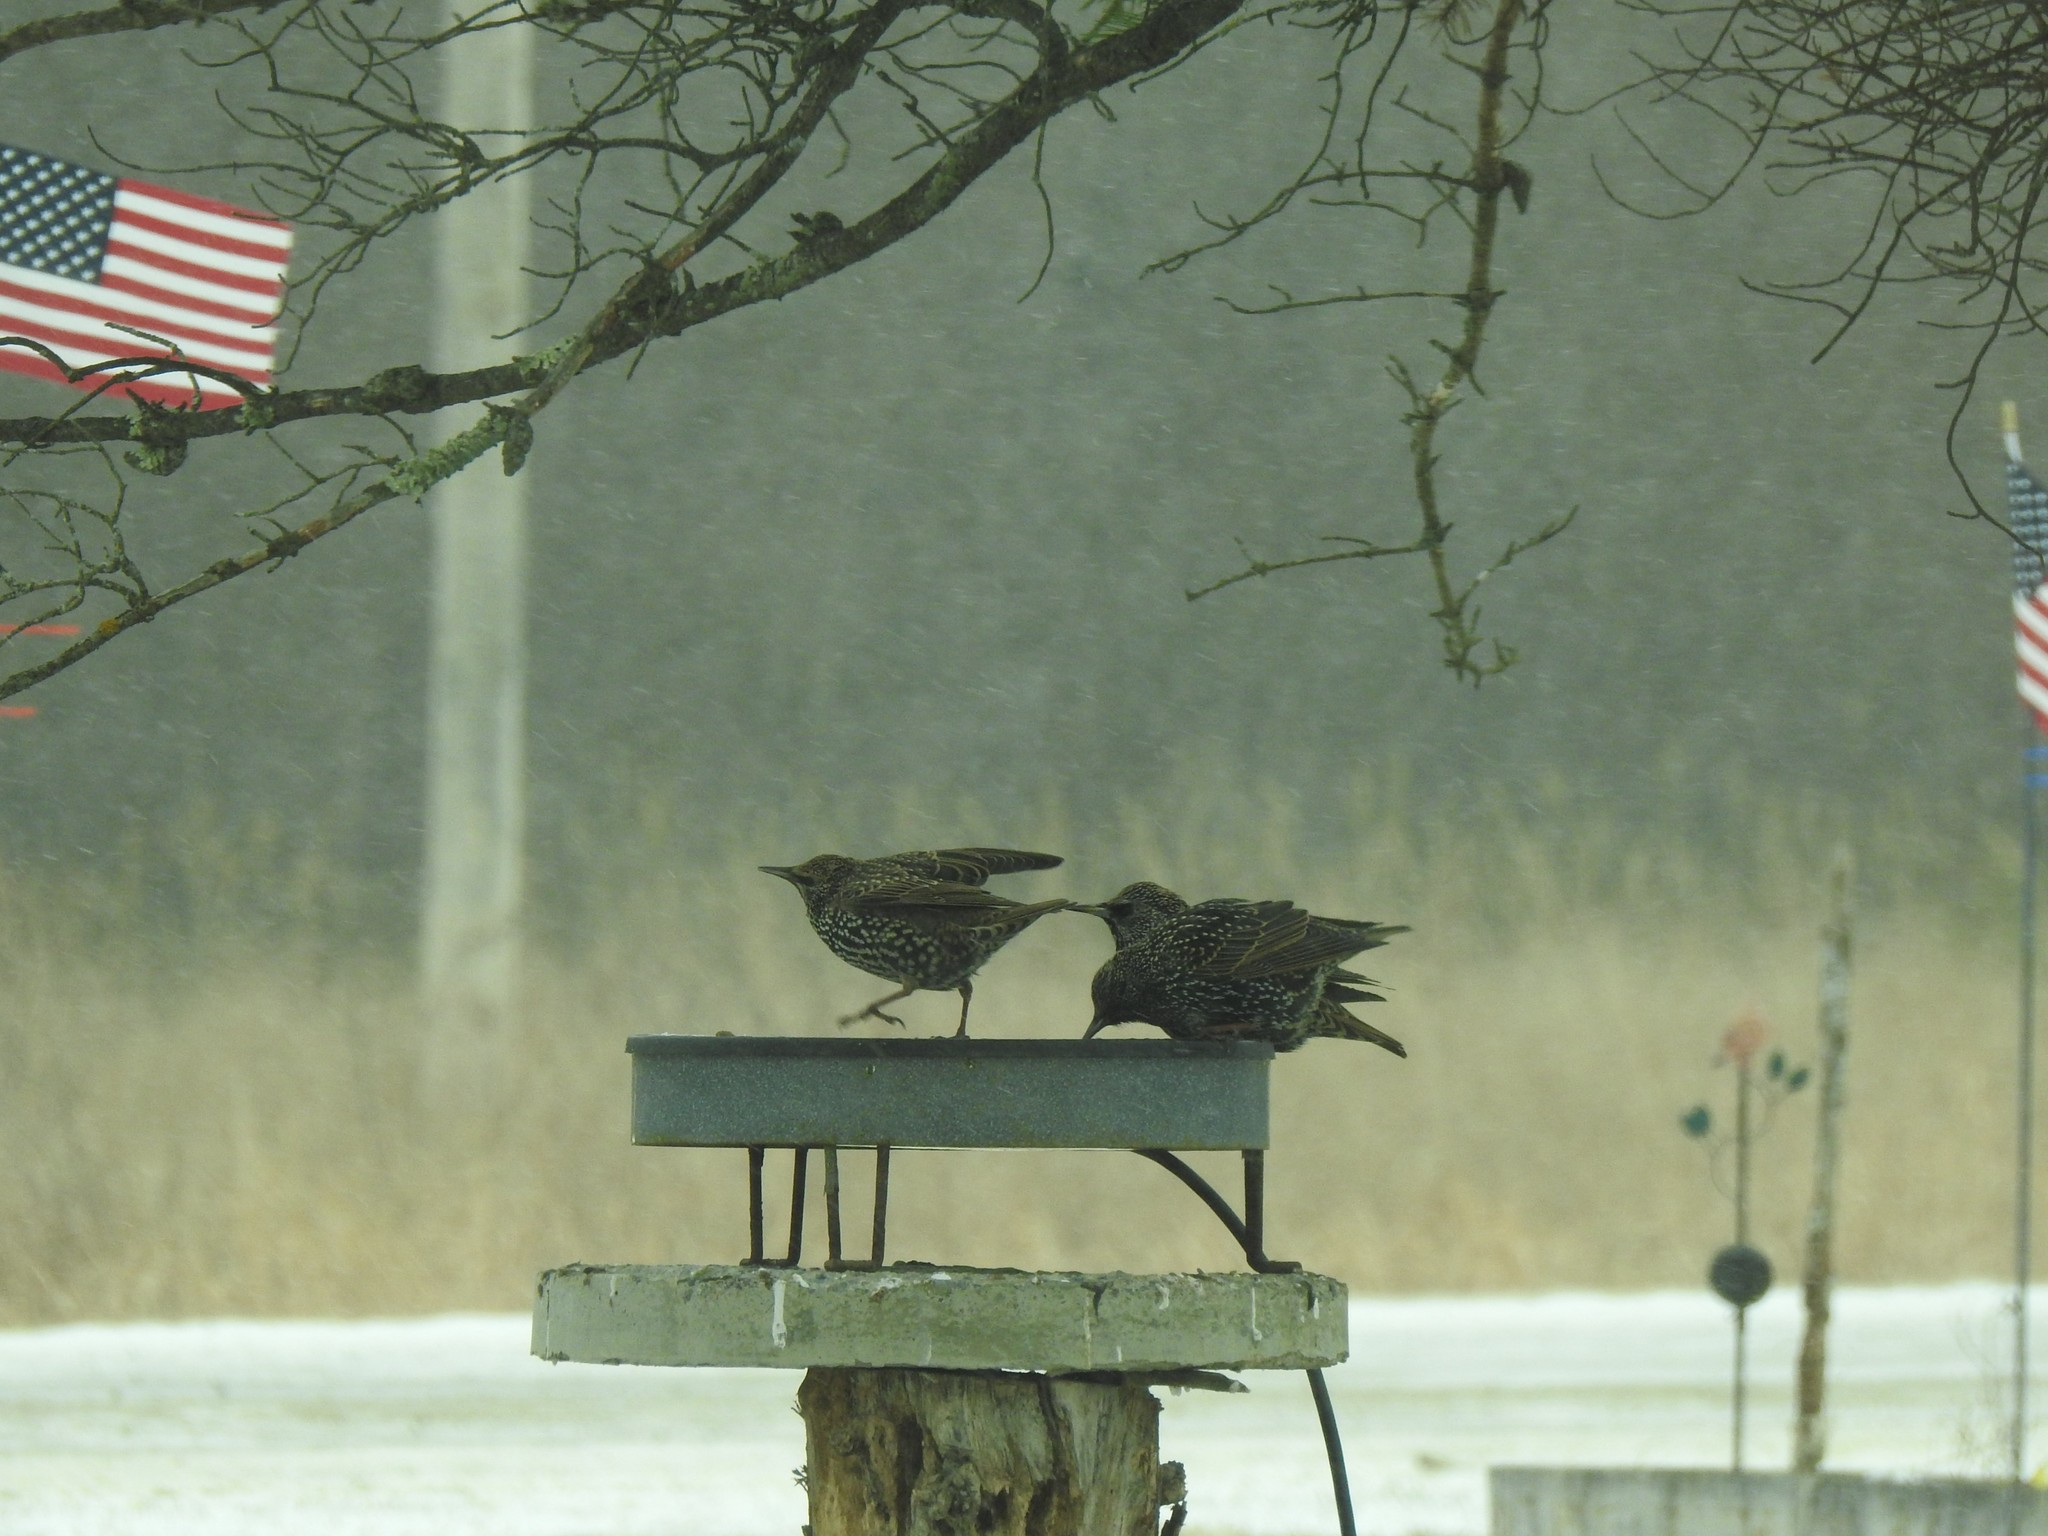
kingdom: Animalia
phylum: Chordata
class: Aves
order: Passeriformes
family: Sturnidae
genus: Sturnus
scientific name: Sturnus vulgaris
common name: Common starling
